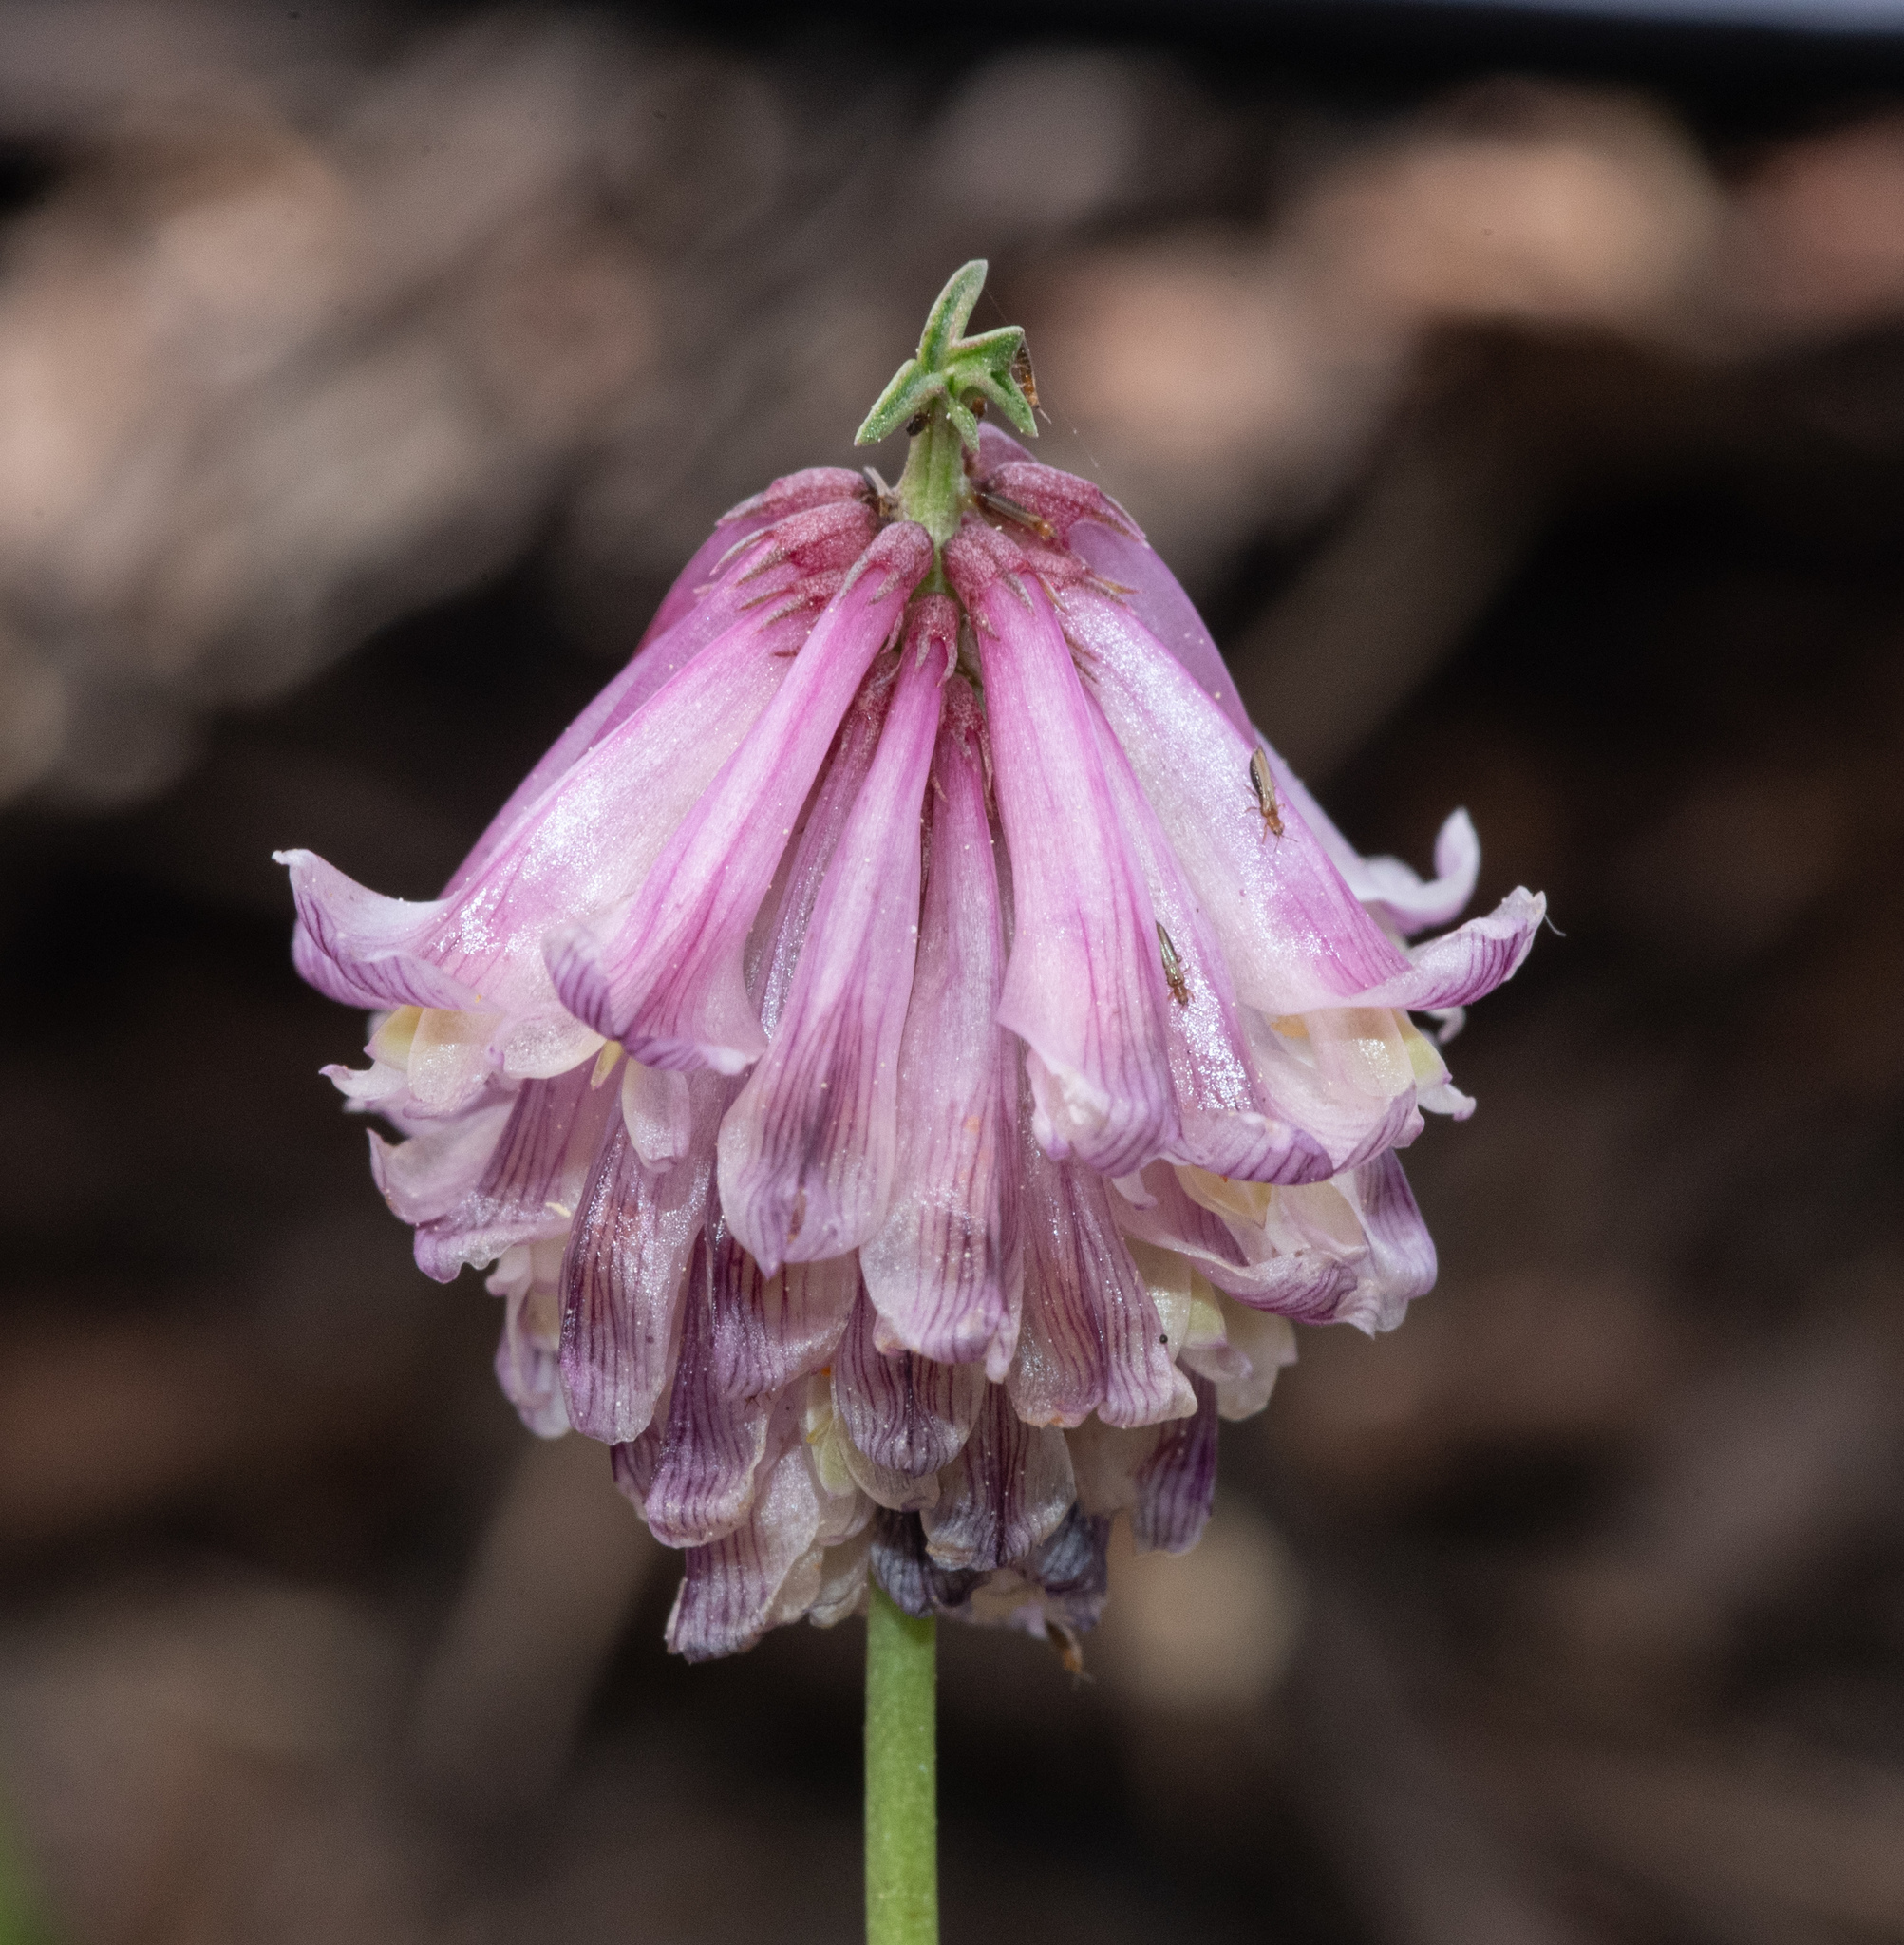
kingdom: Plantae
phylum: Tracheophyta
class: Magnoliopsida
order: Fabales
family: Fabaceae
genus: Trifolium
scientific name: Trifolium productum
